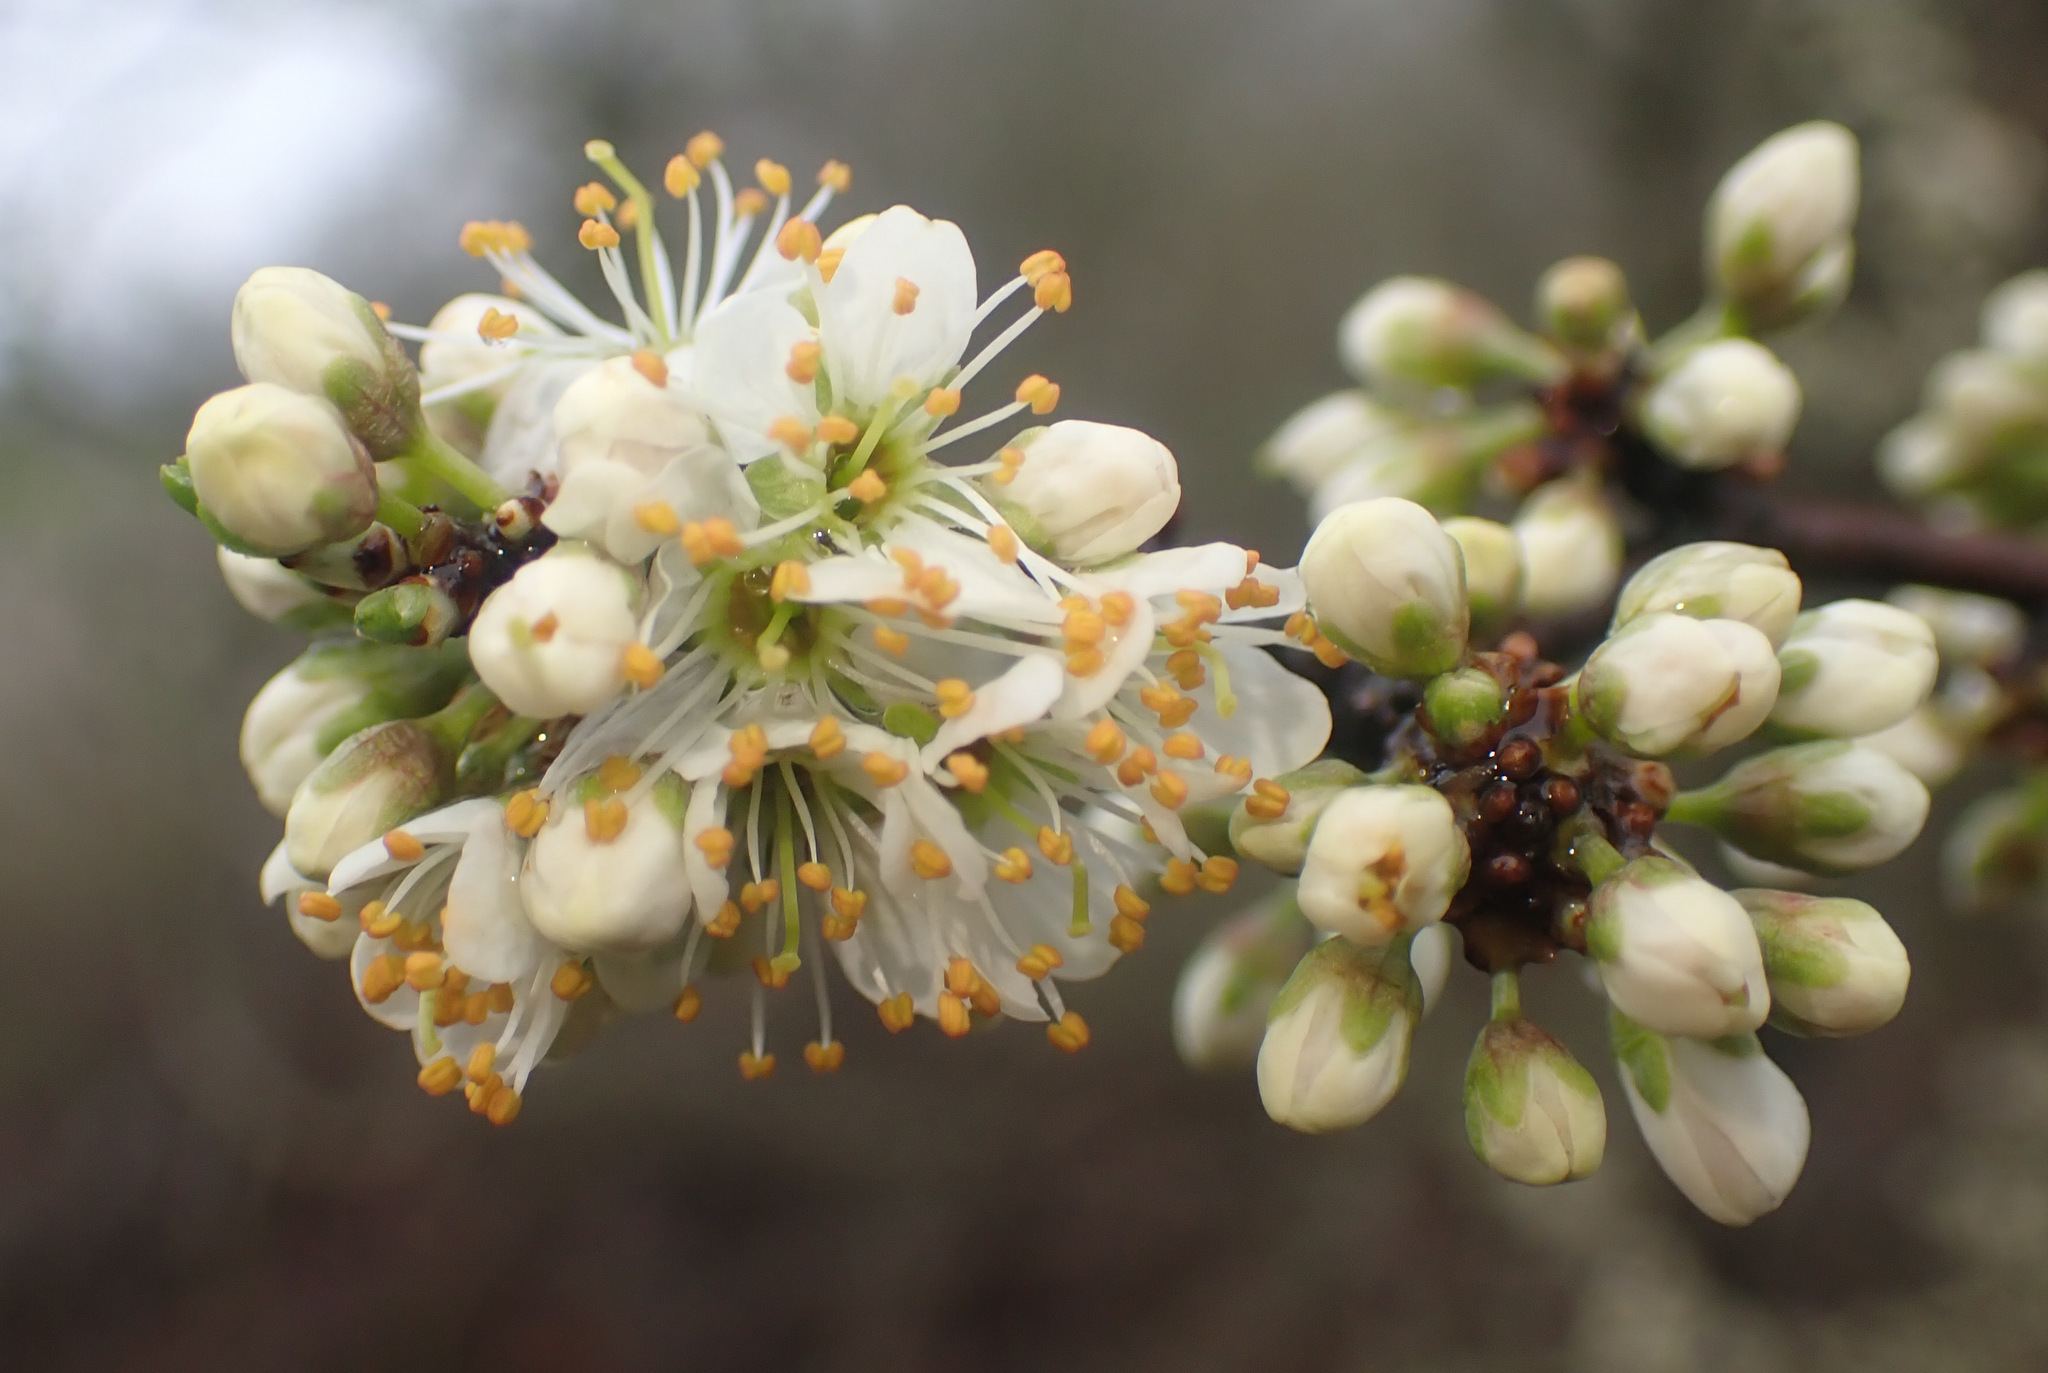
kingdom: Plantae
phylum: Tracheophyta
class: Magnoliopsida
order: Rosales
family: Rosaceae
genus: Prunus
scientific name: Prunus spinosa
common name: Blackthorn
